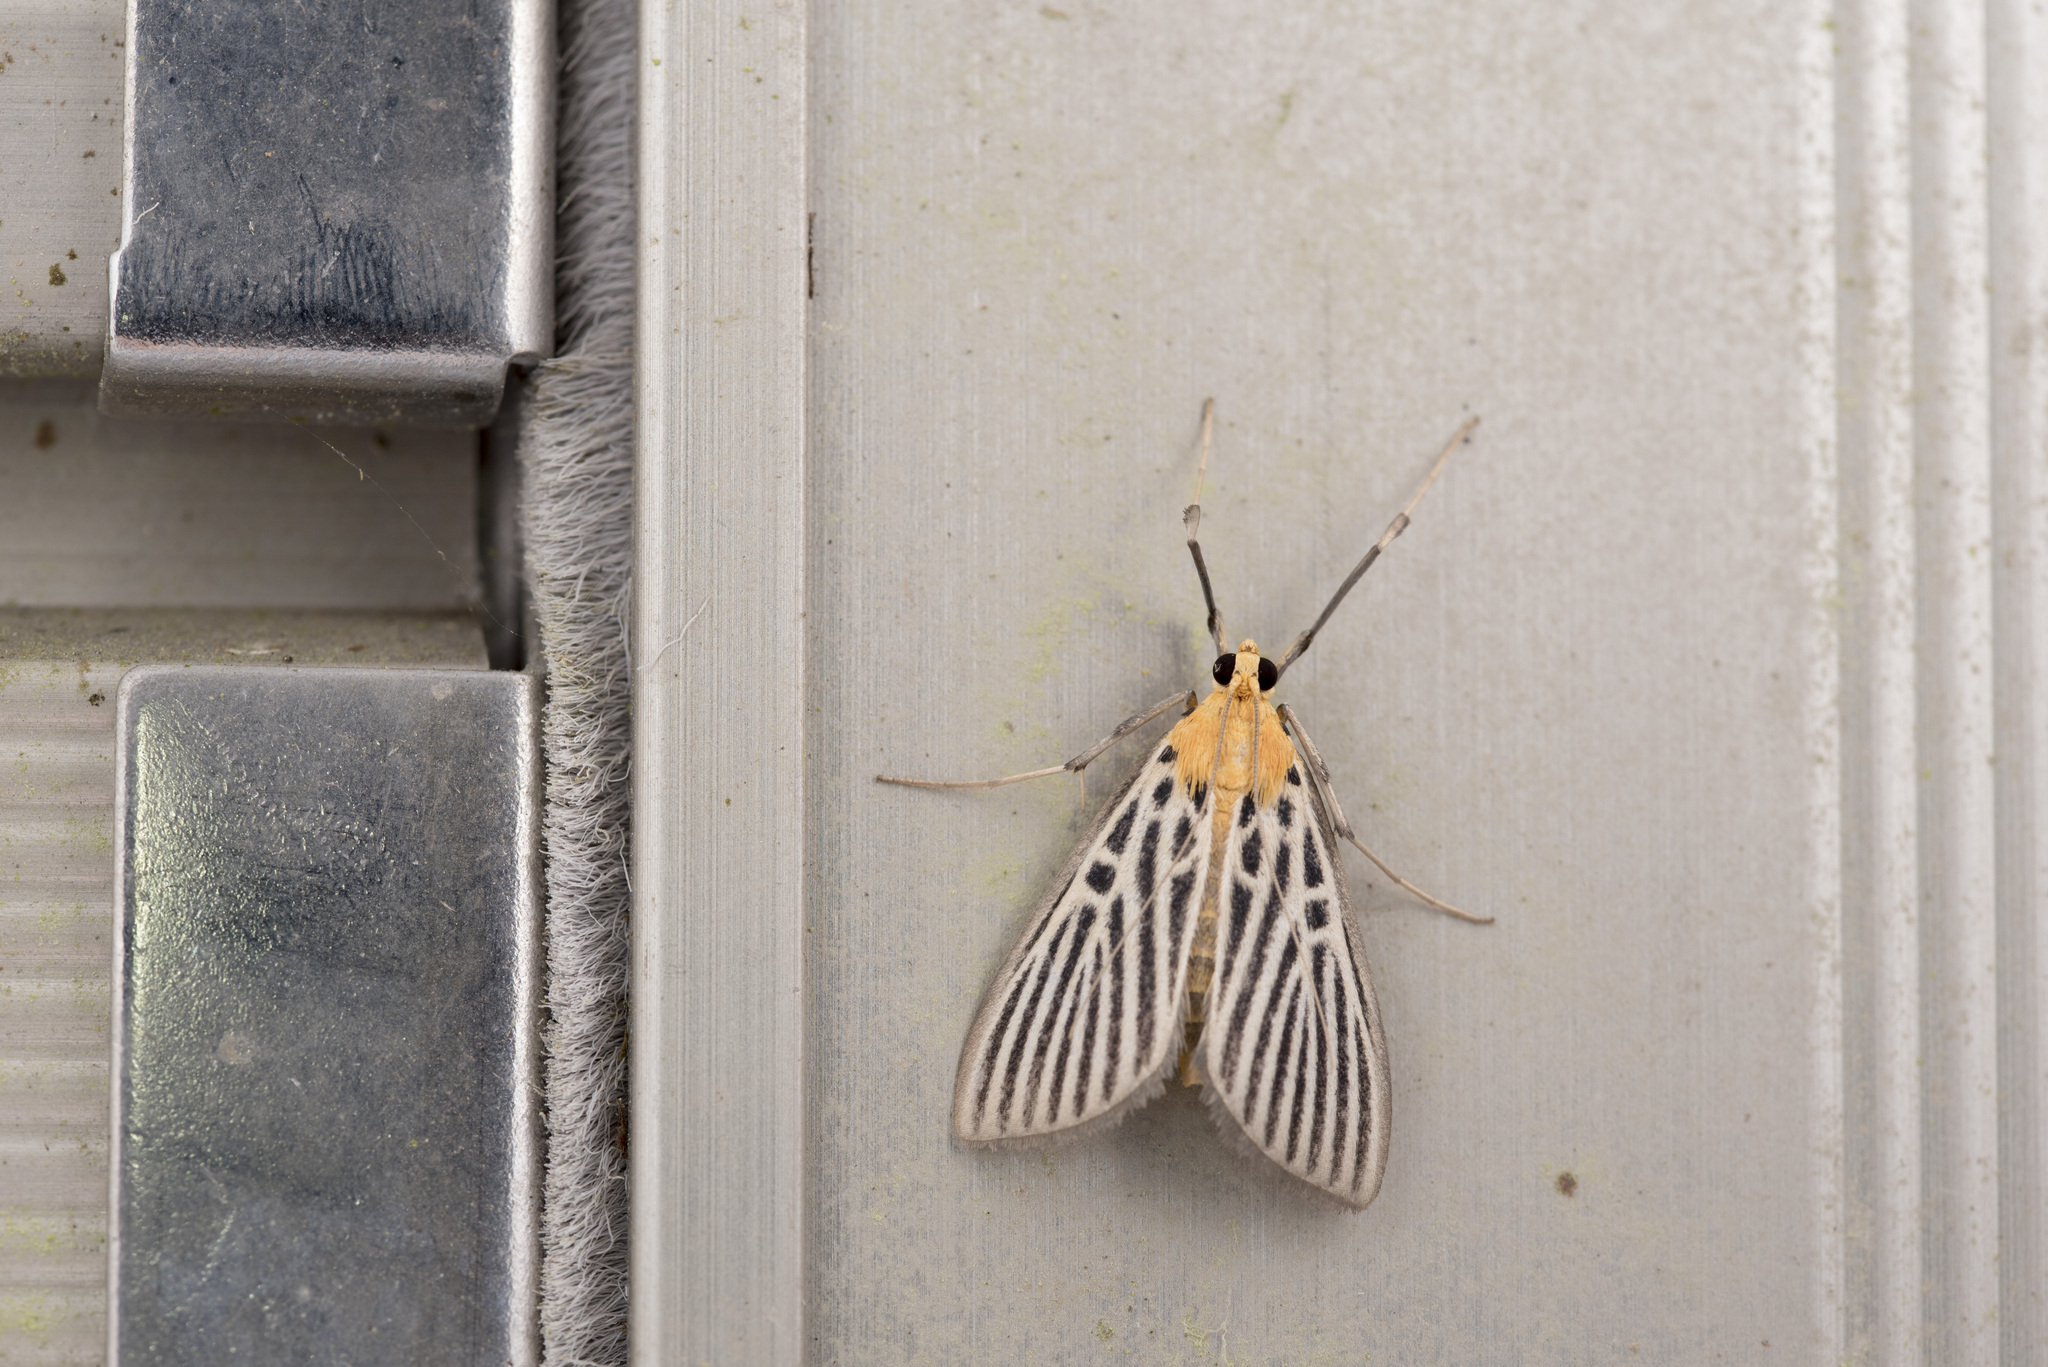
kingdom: Animalia
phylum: Arthropoda
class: Insecta
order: Lepidoptera
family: Crambidae
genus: Tyspanodes
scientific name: Tyspanodes hypsalis
